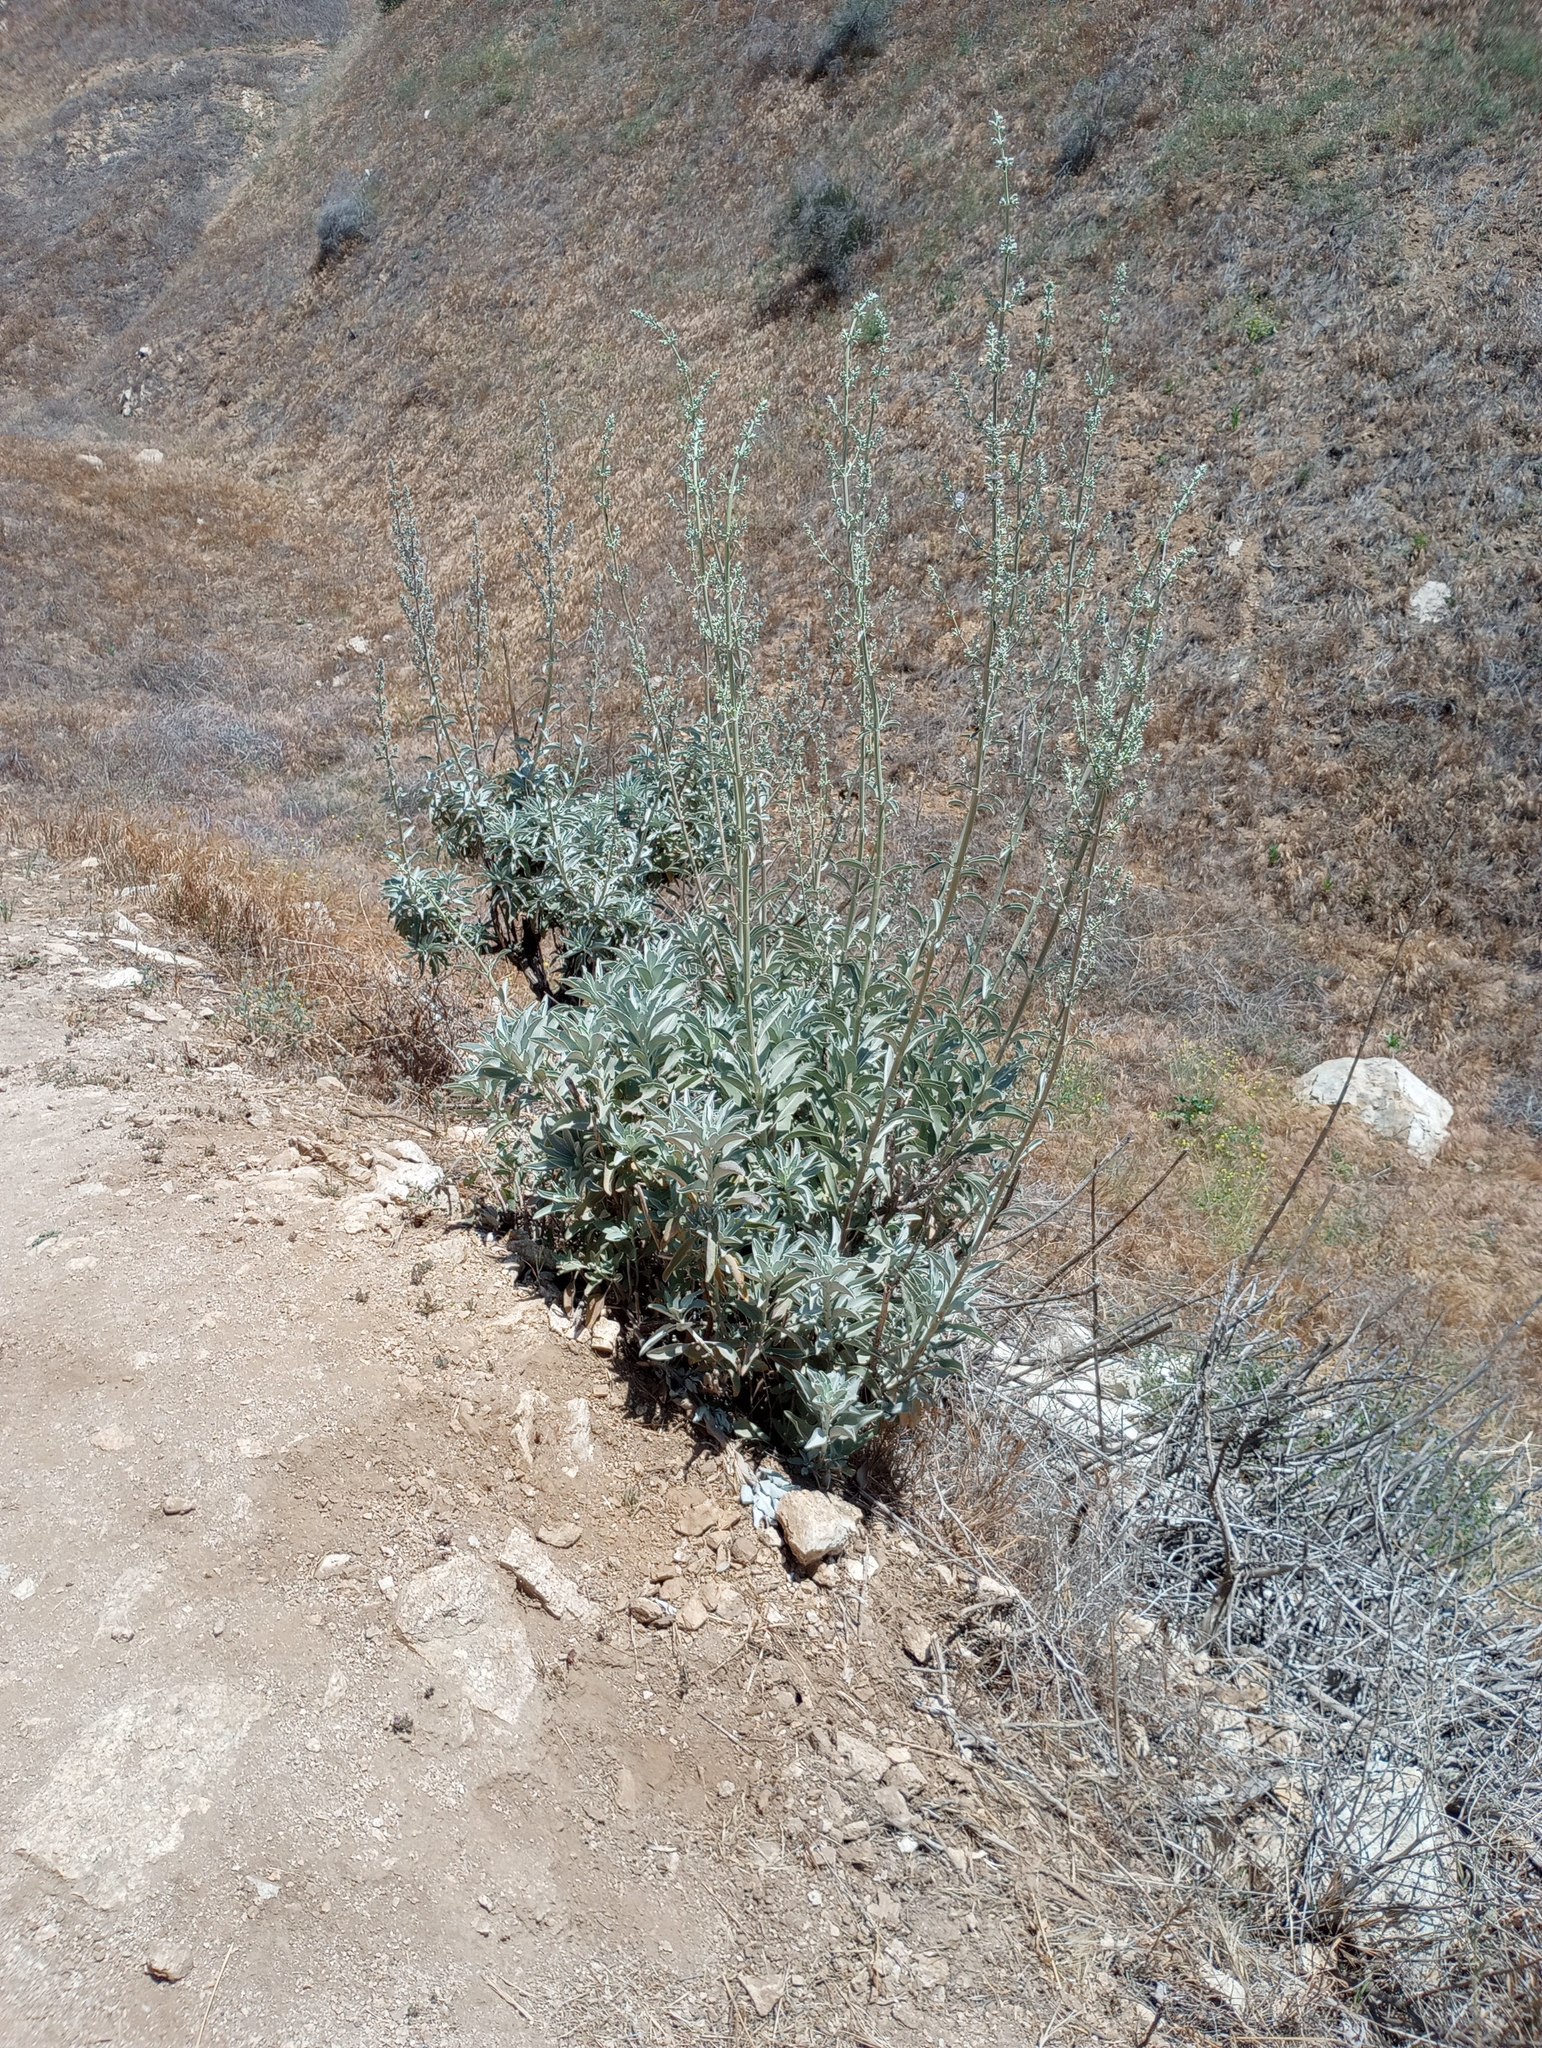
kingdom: Plantae
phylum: Tracheophyta
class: Magnoliopsida
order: Lamiales
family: Lamiaceae
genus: Salvia
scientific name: Salvia apiana
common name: White sage
